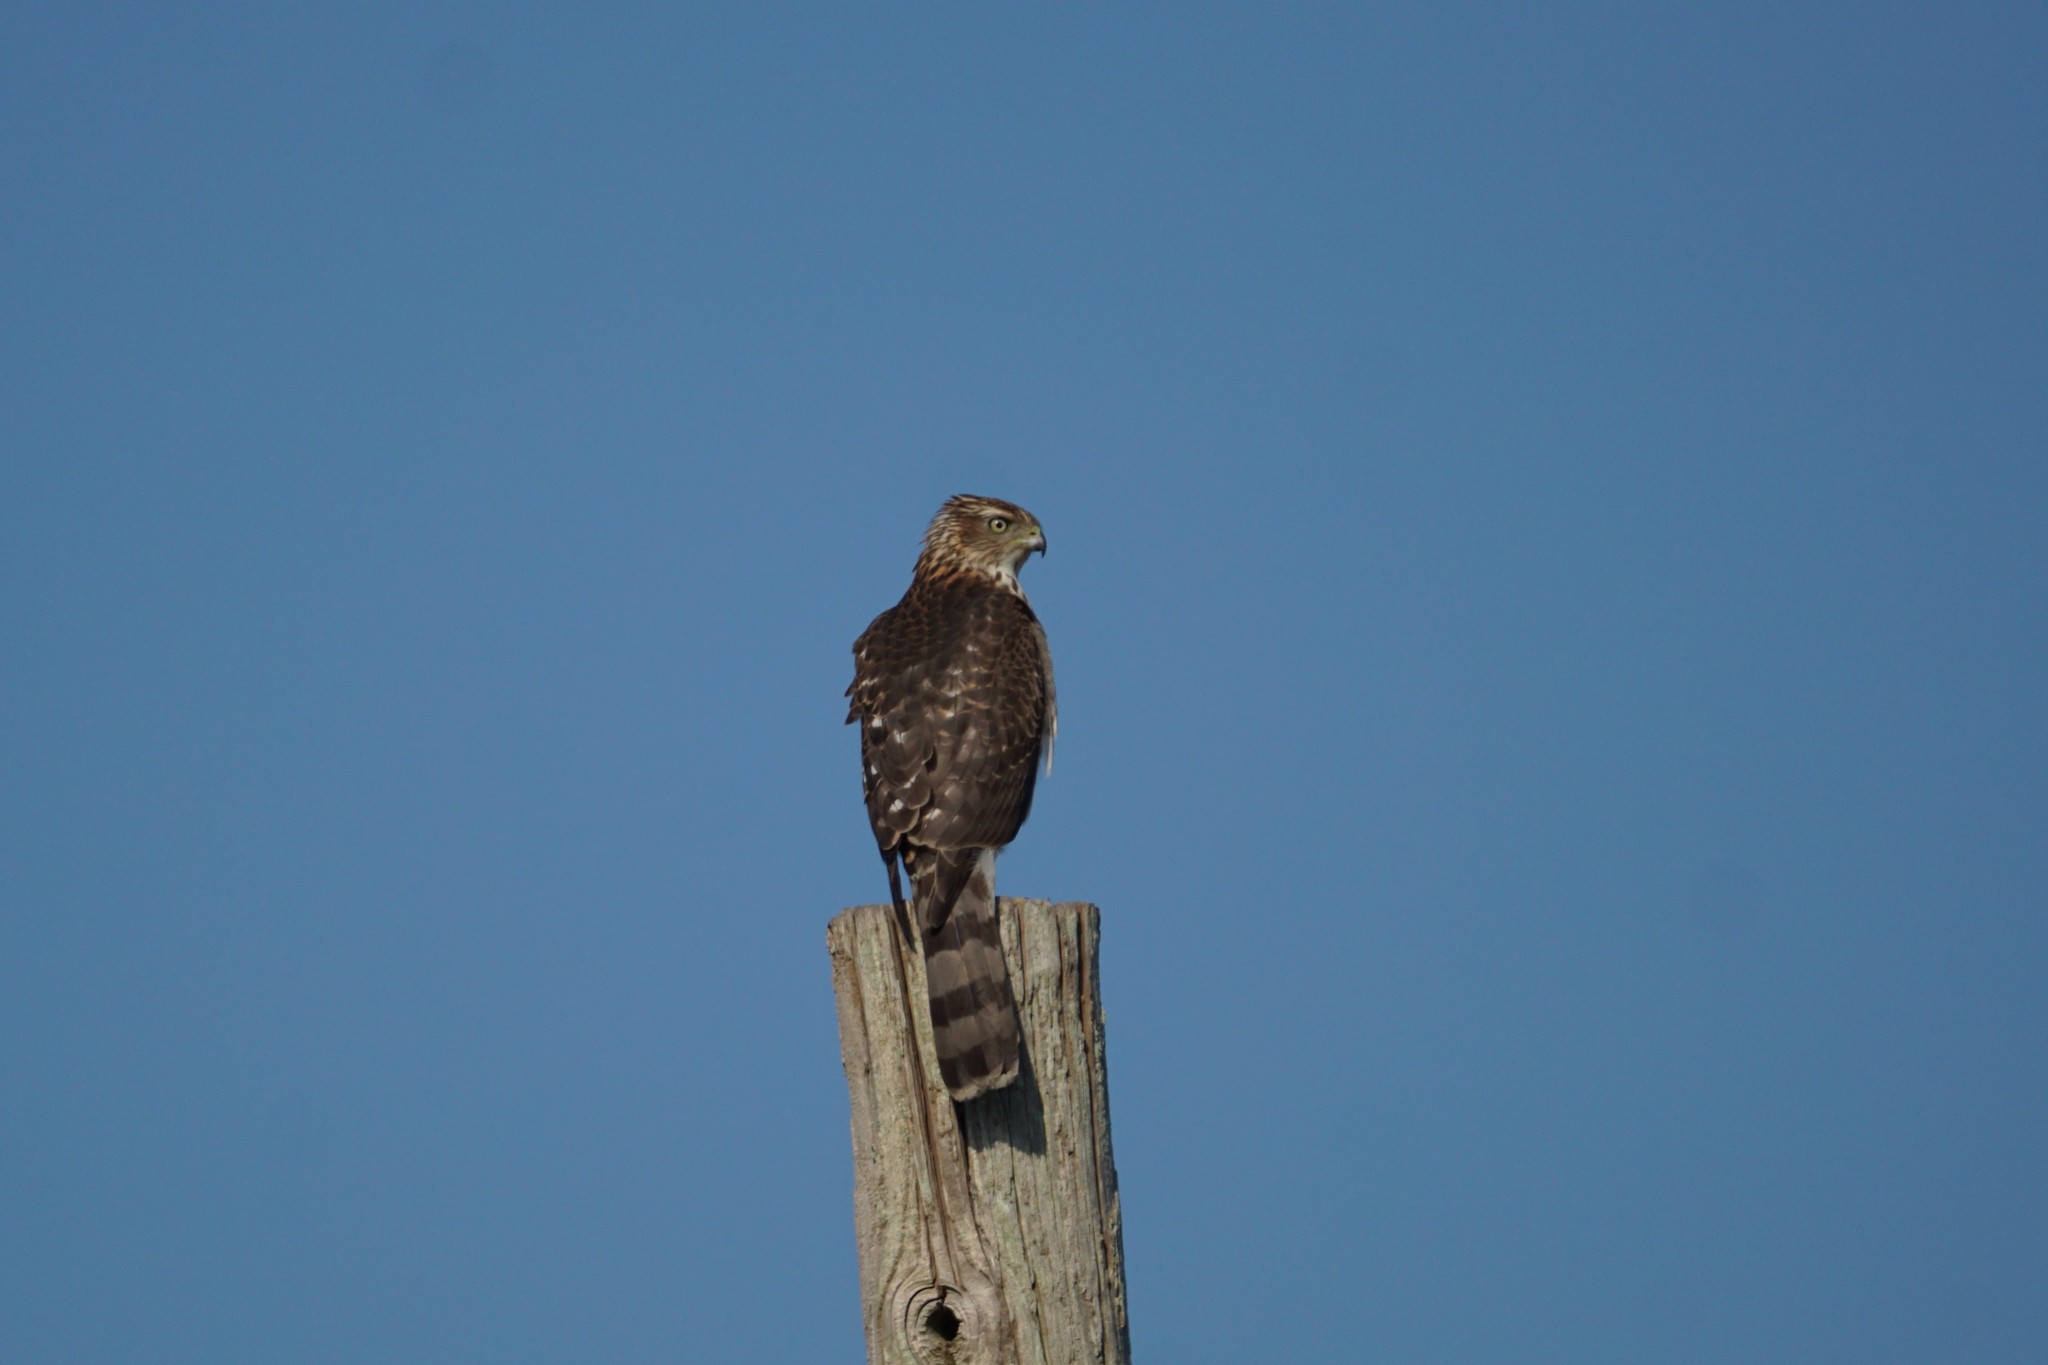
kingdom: Animalia
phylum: Chordata
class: Aves
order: Accipitriformes
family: Accipitridae
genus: Accipiter
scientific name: Accipiter cooperii
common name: Cooper's hawk
